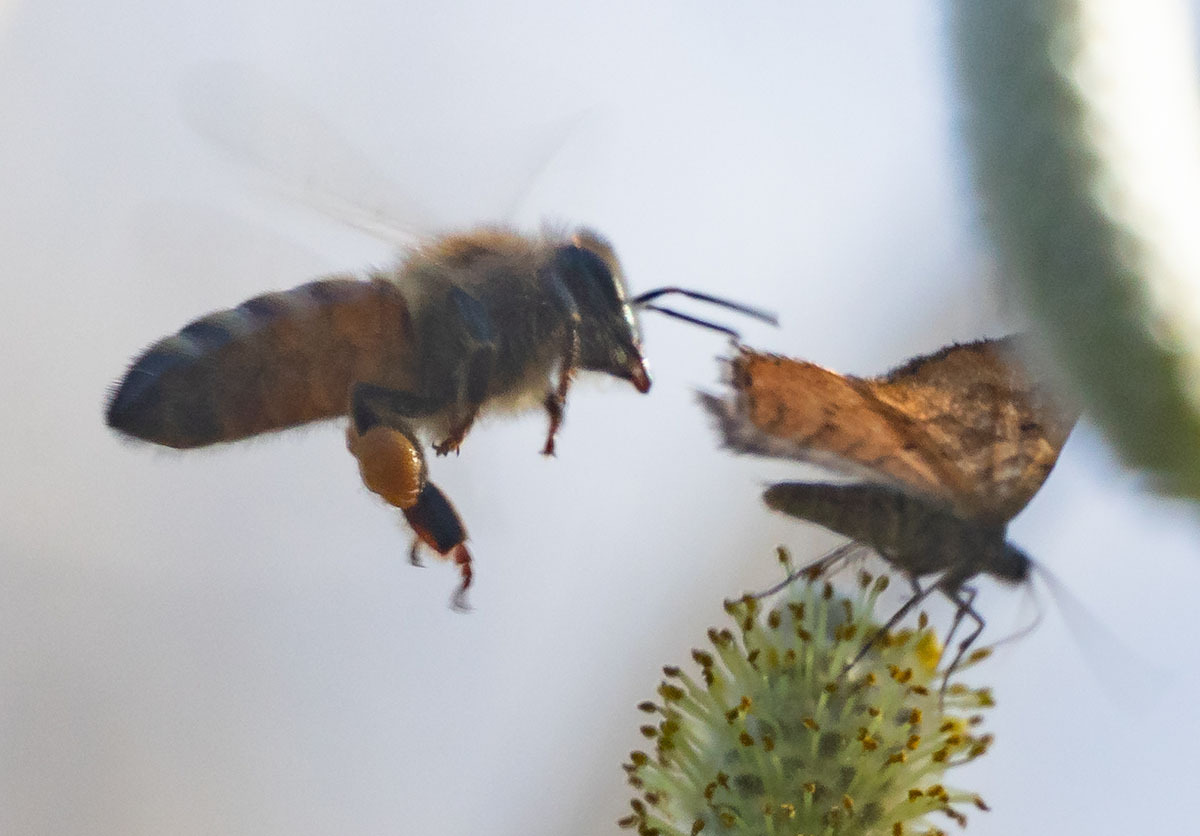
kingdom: Animalia
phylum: Arthropoda
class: Insecta
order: Hymenoptera
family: Apidae
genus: Apis
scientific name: Apis mellifera
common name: Honey bee
